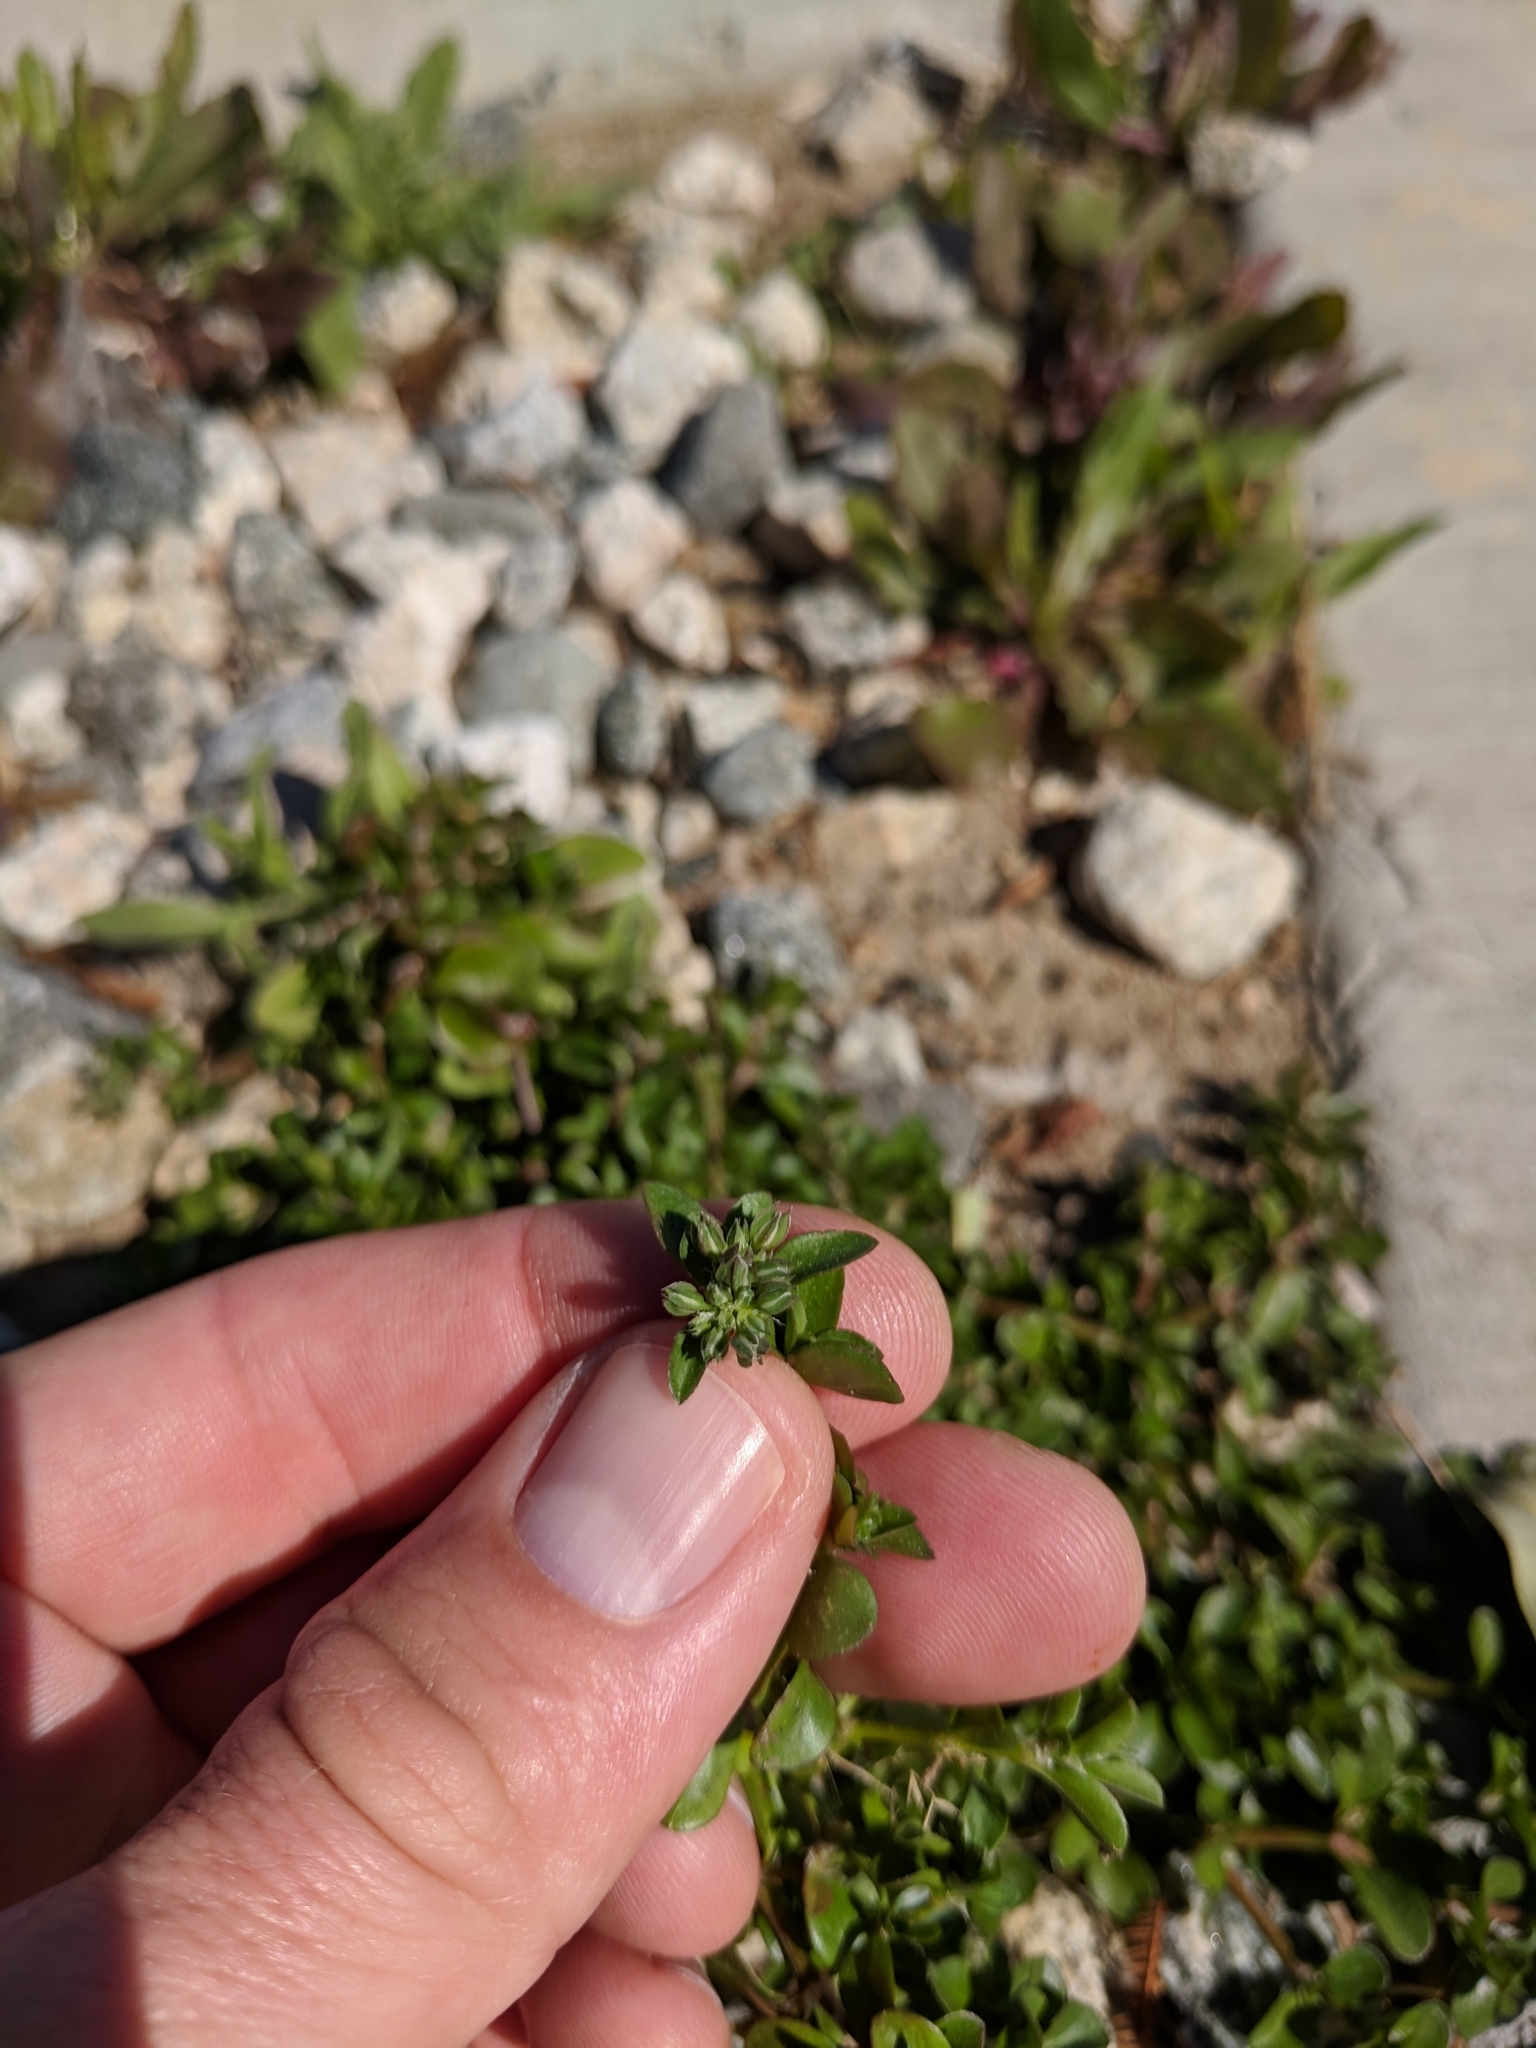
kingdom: Plantae
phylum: Tracheophyta
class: Magnoliopsida
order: Caryophyllales
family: Caryophyllaceae
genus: Polycarpon
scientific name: Polycarpon tetraphyllum
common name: Four-leaved all-seed
